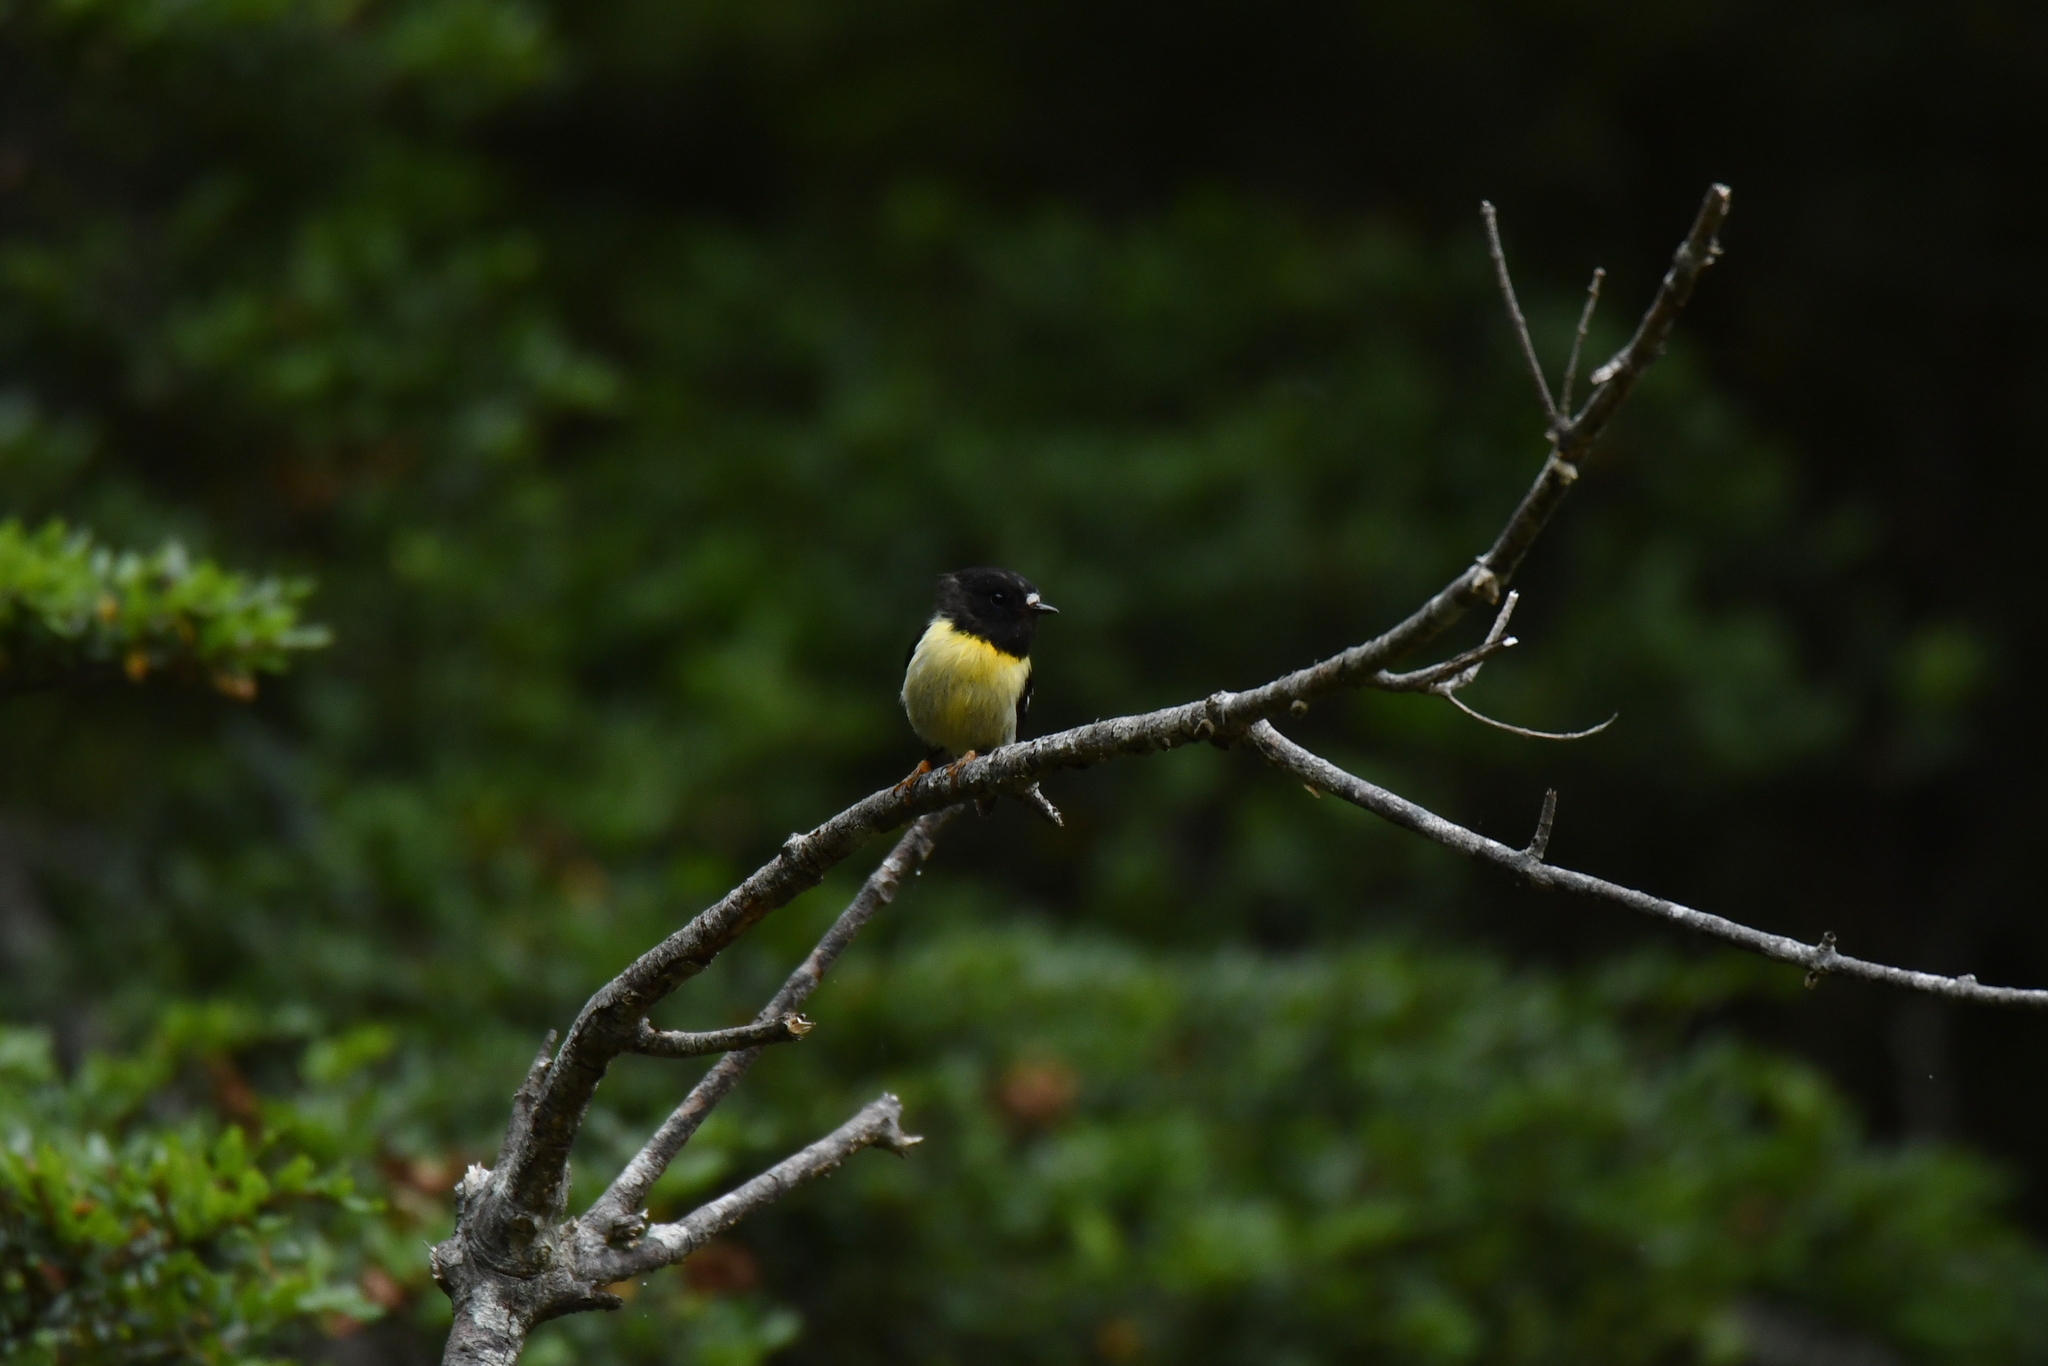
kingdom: Animalia
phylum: Chordata
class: Aves
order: Passeriformes
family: Petroicidae
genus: Petroica
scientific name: Petroica macrocephala
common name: Tomtit
